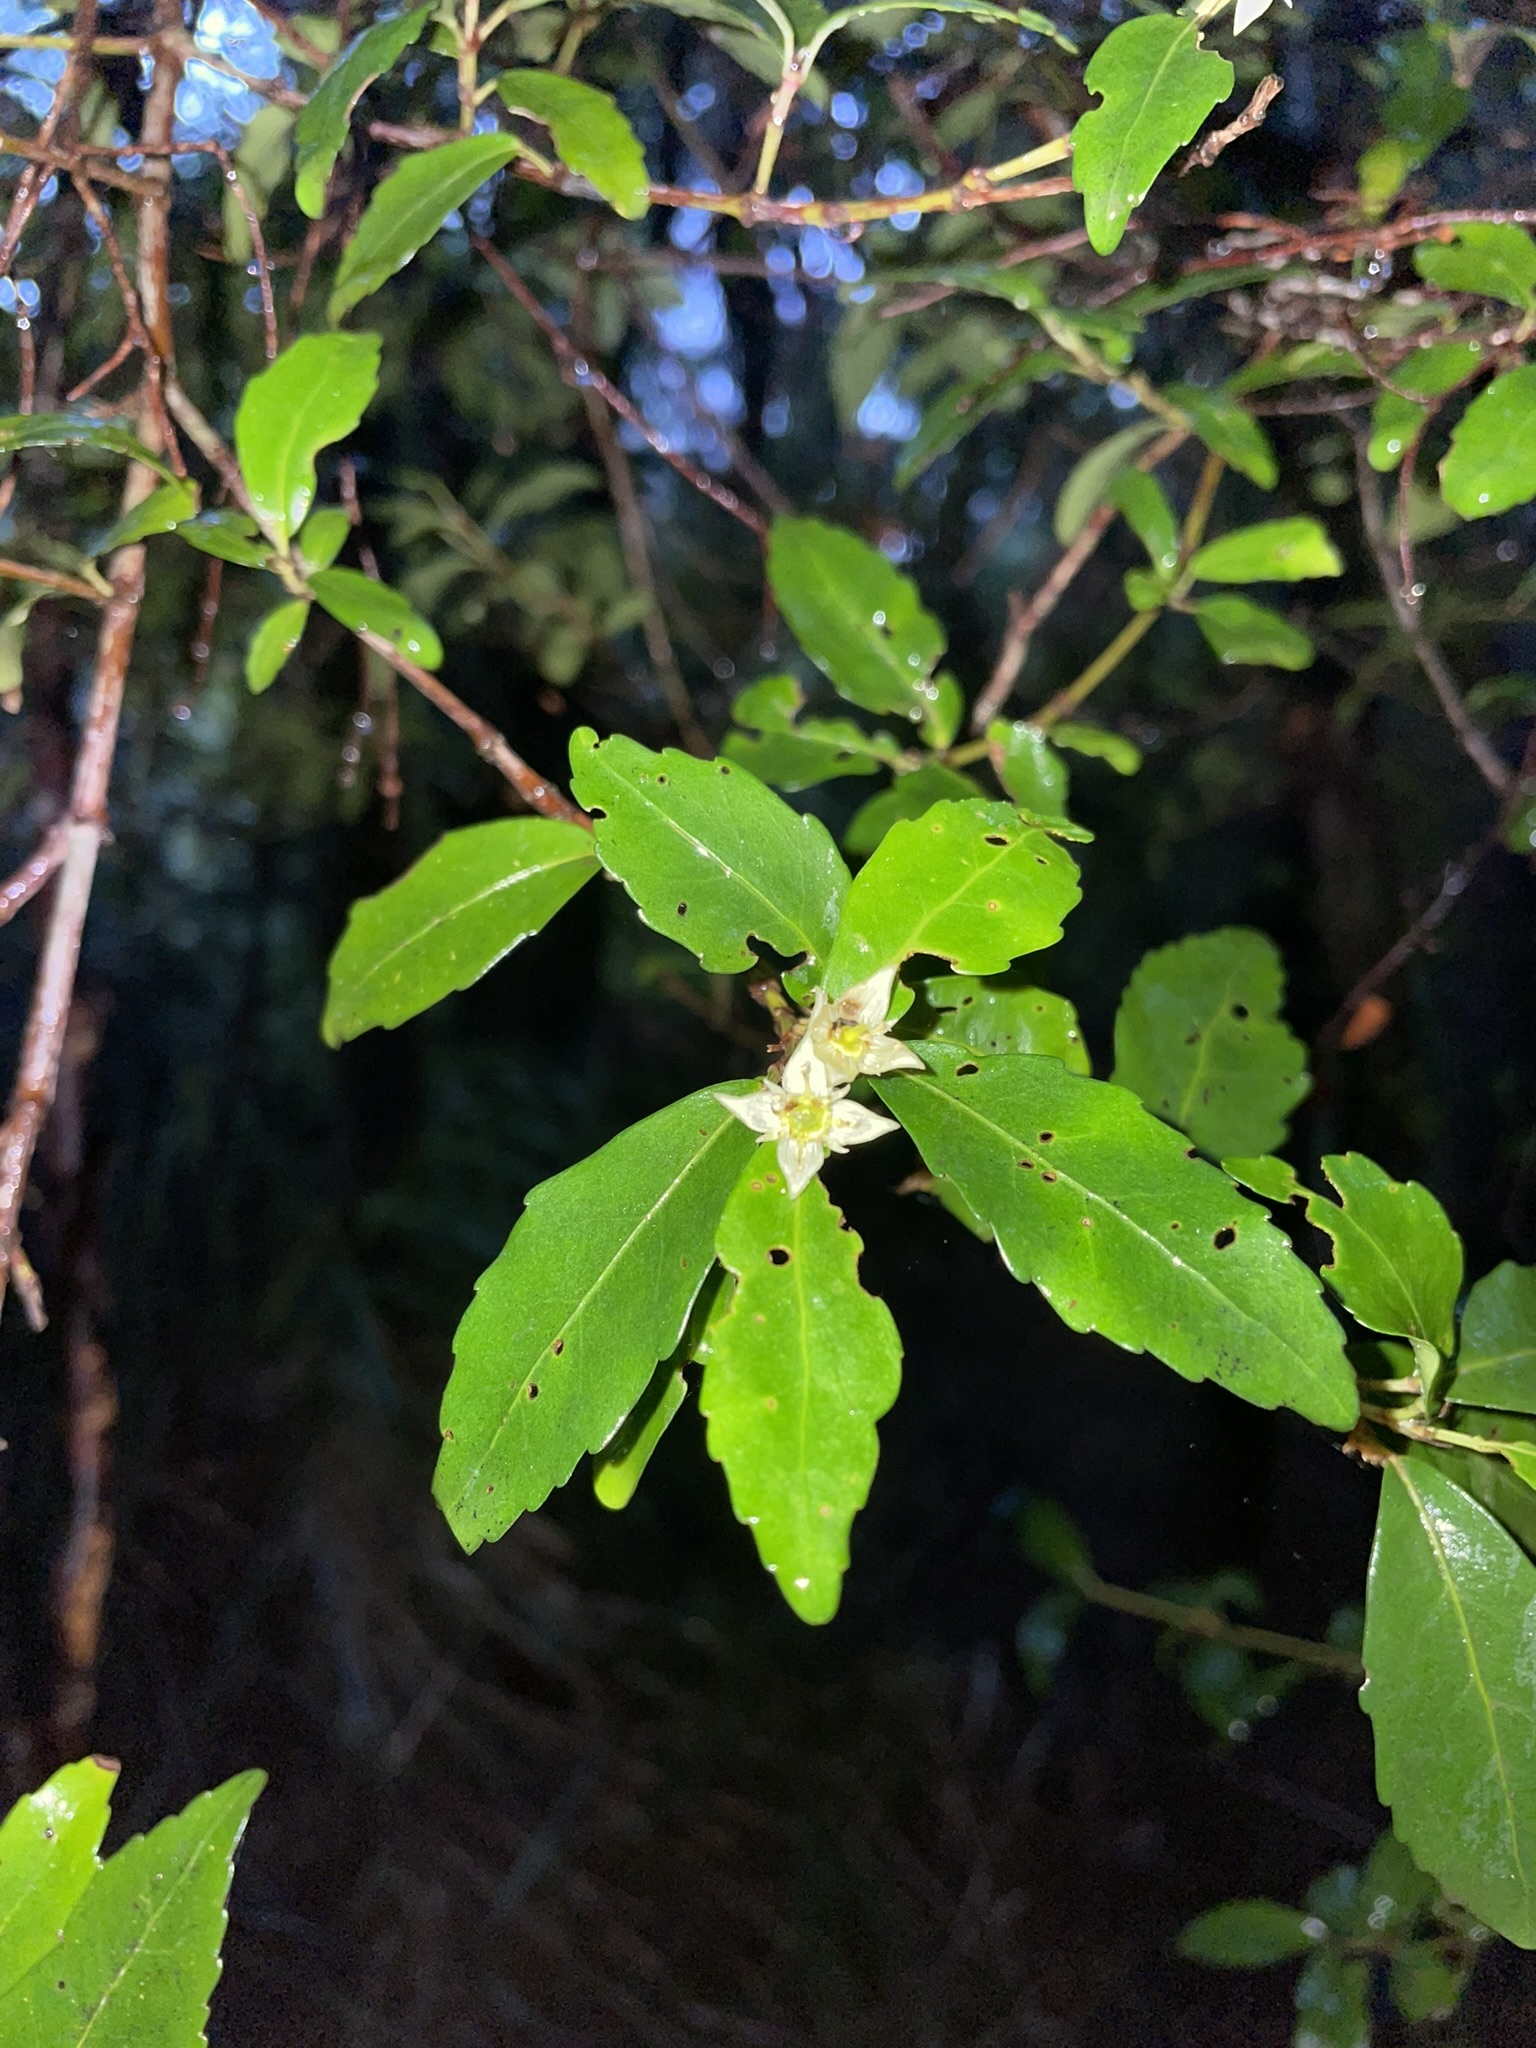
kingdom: Plantae
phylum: Tracheophyta
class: Magnoliopsida
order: Oxalidales
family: Cunoniaceae
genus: Anodopetalum
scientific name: Anodopetalum biglandulosum
